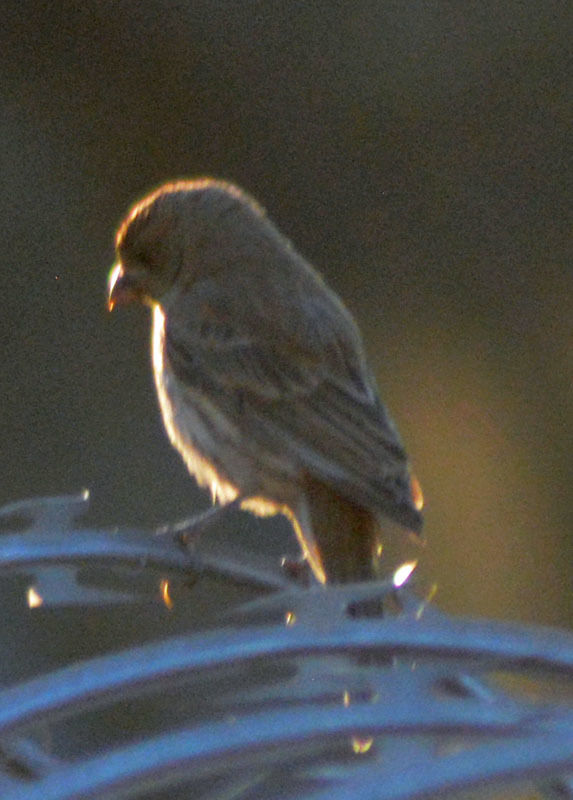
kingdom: Animalia
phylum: Chordata
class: Aves
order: Passeriformes
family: Fringillidae
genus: Haemorhous
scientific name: Haemorhous mexicanus
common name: House finch
